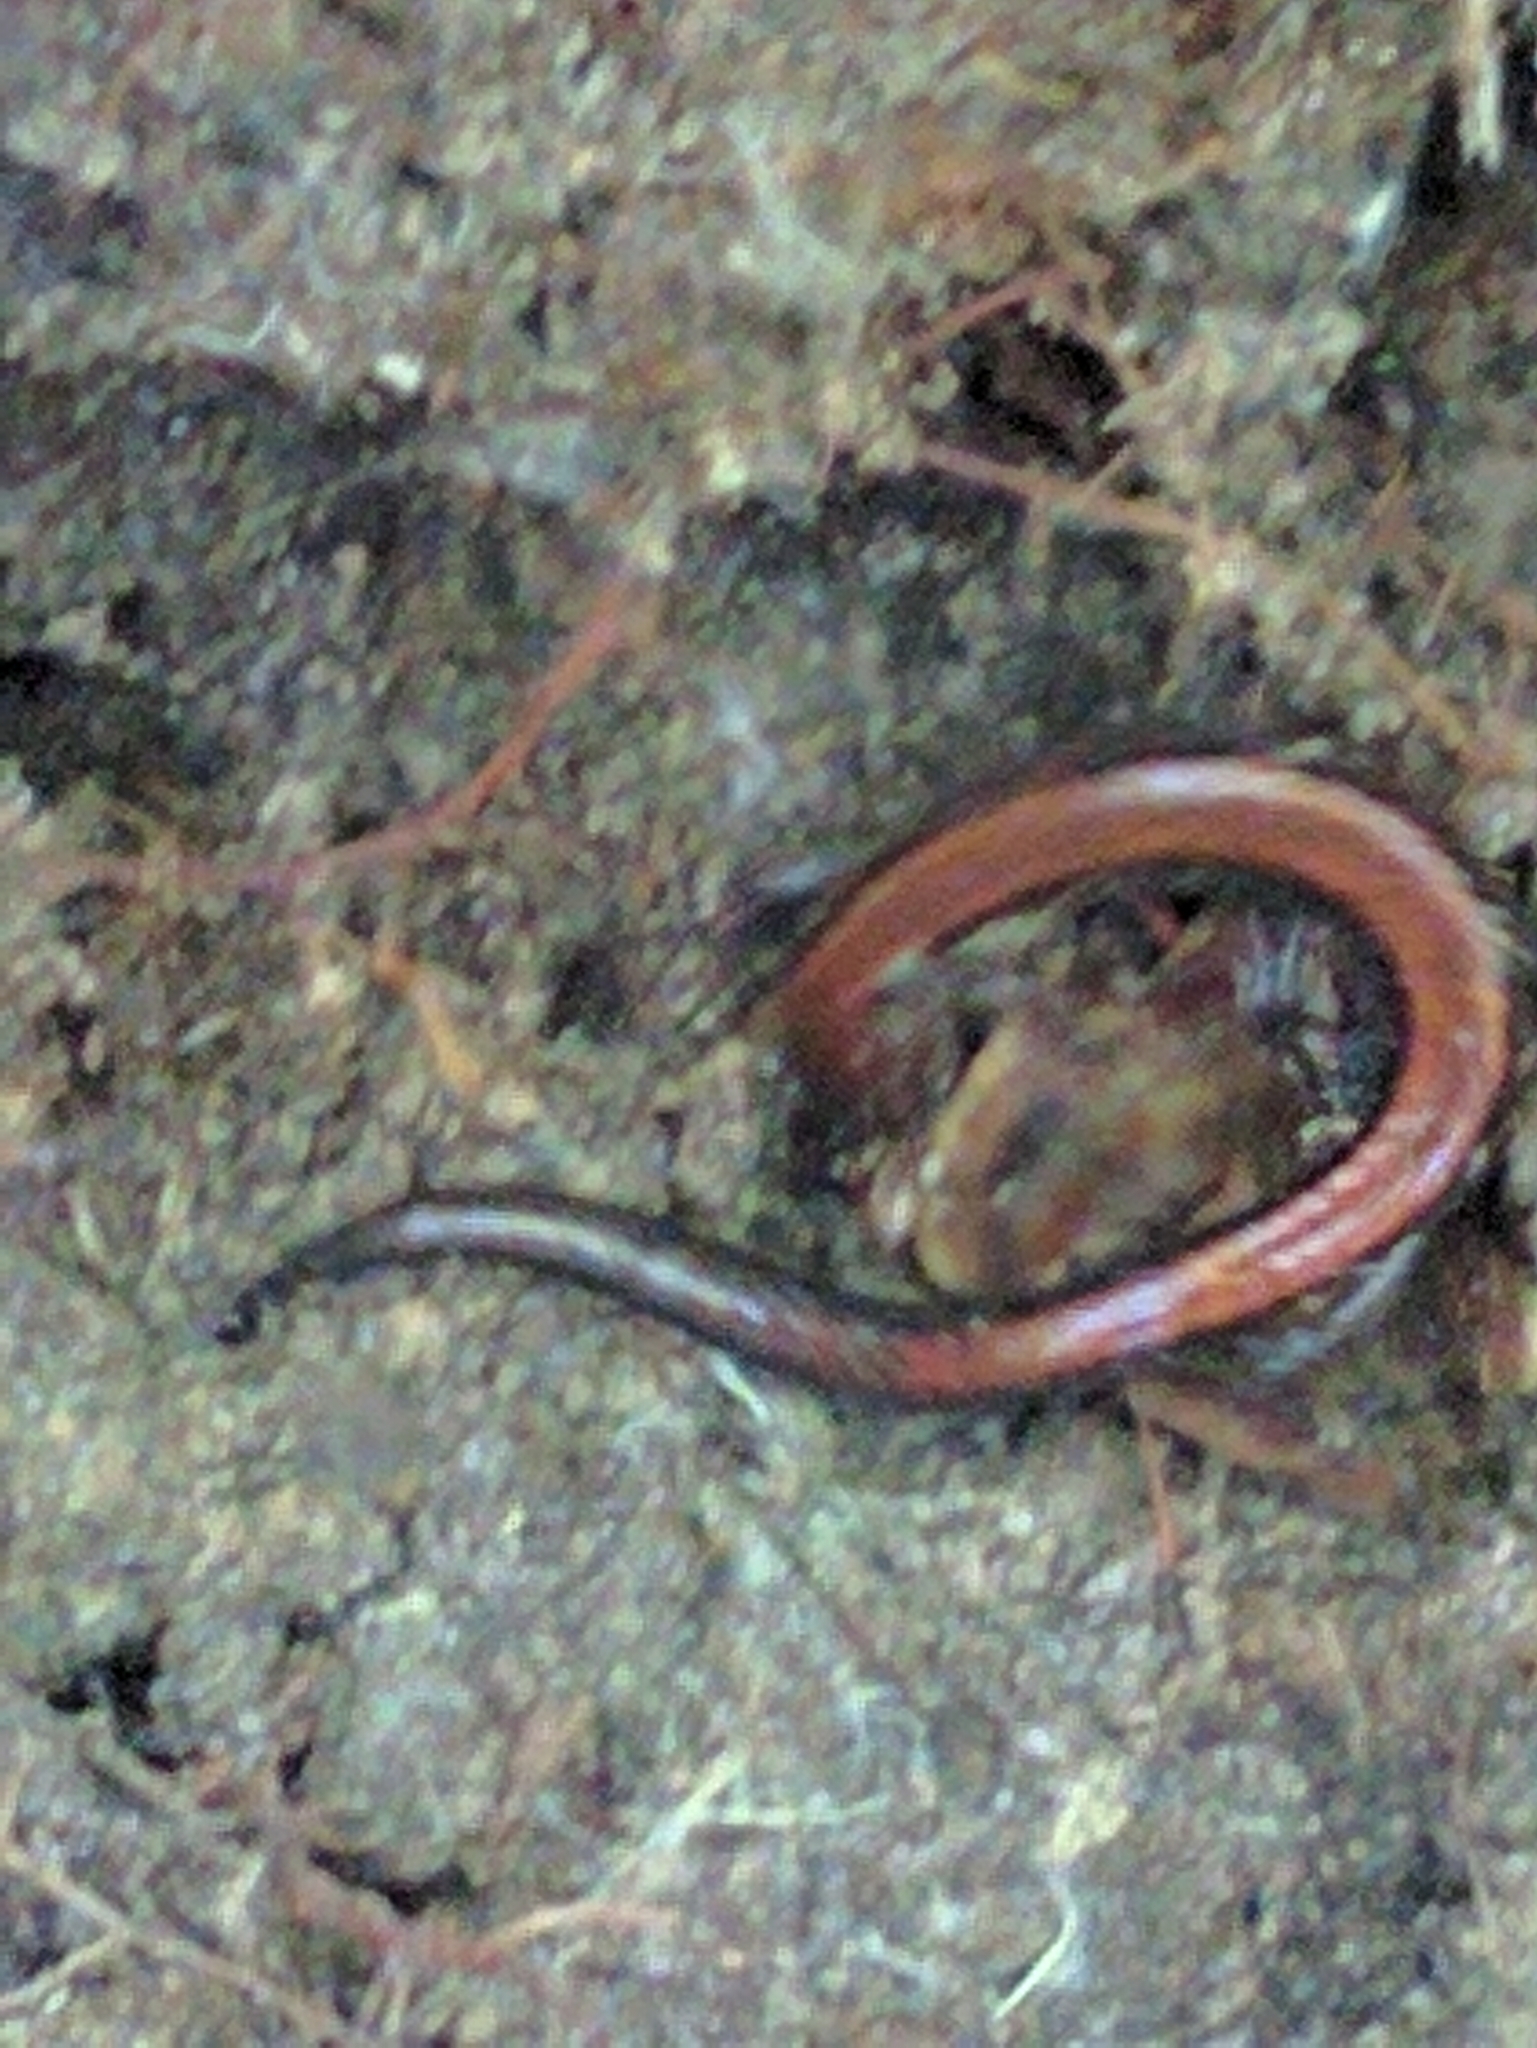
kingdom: Animalia
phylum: Chordata
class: Amphibia
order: Caudata
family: Plethodontidae
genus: Plethodon
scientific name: Plethodon cinereus
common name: Redback salamander
